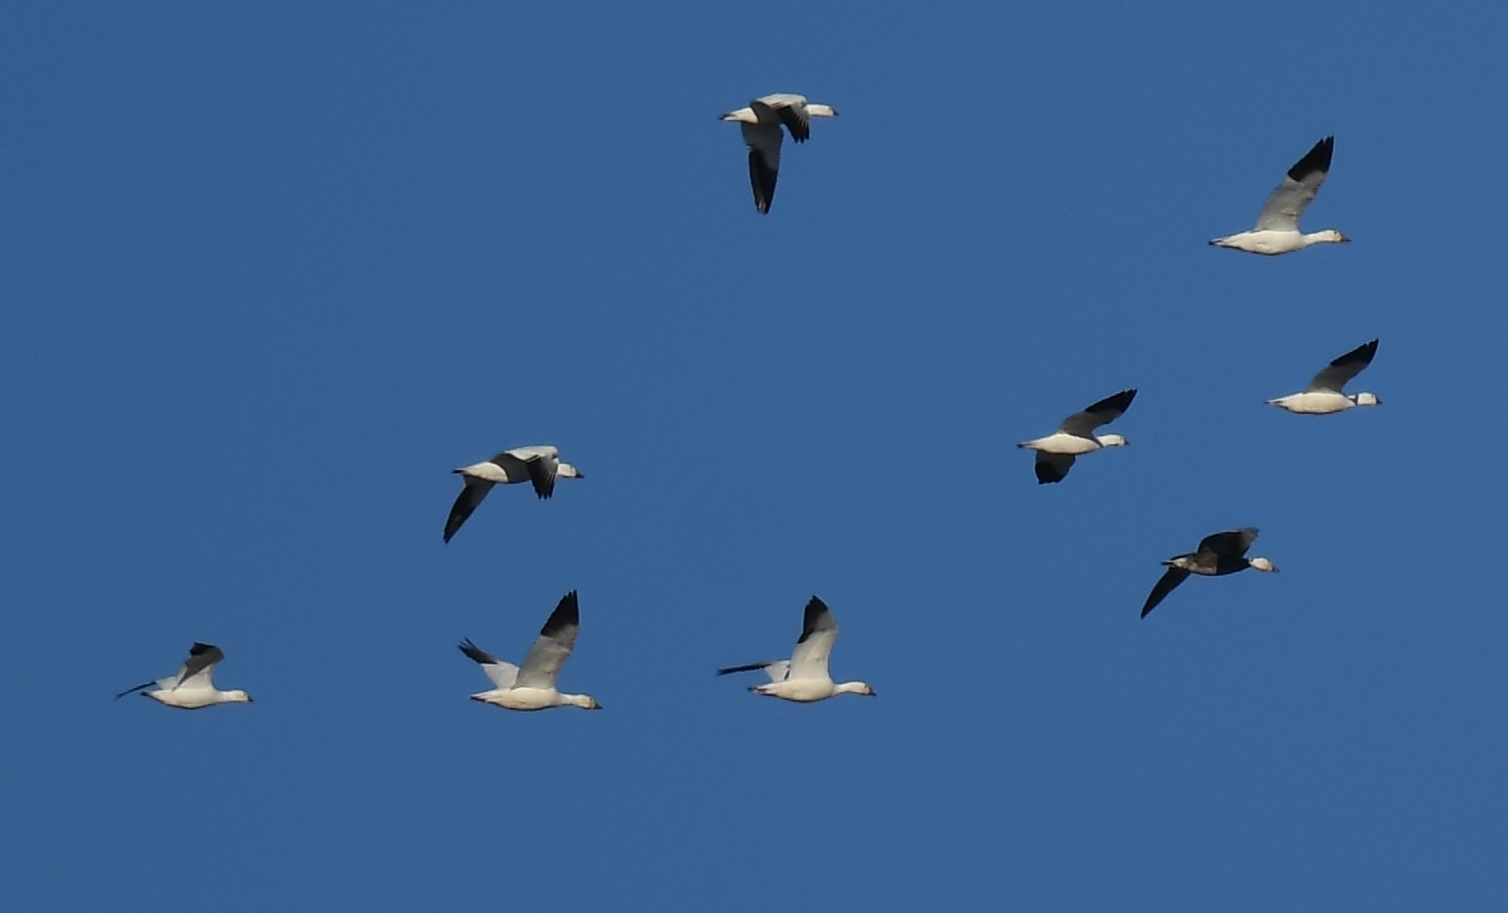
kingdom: Animalia
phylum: Chordata
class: Aves
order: Anseriformes
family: Anatidae
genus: Anser
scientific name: Anser rossii
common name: Ross's goose
